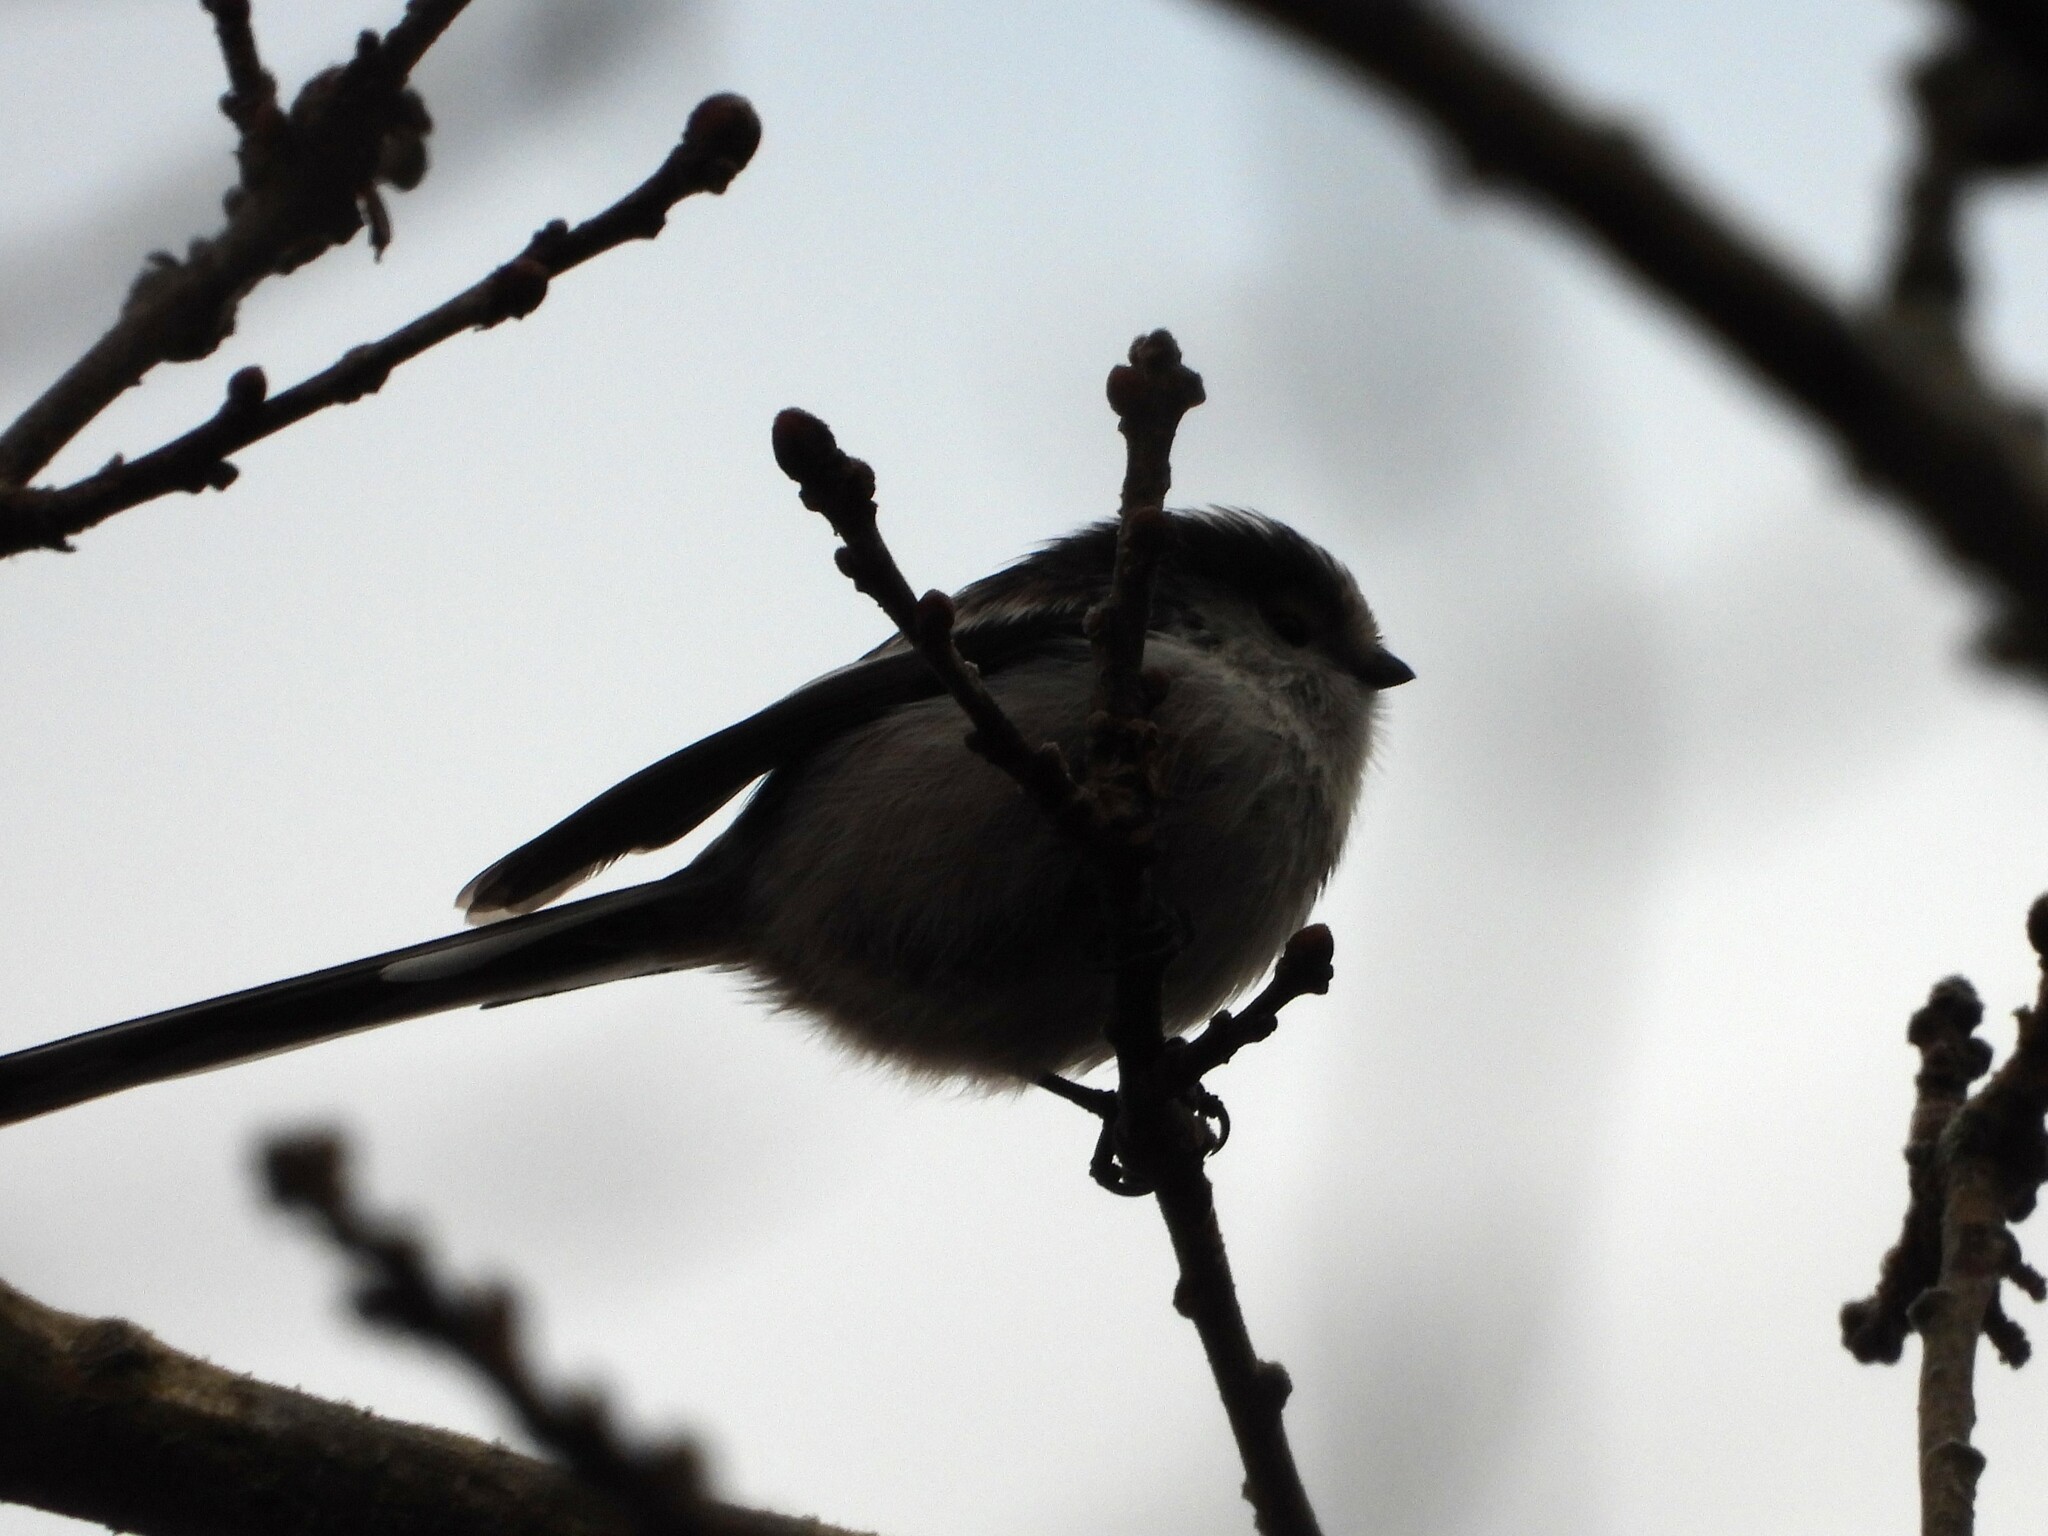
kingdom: Animalia
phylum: Chordata
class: Aves
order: Passeriformes
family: Aegithalidae
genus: Aegithalos
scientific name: Aegithalos caudatus
